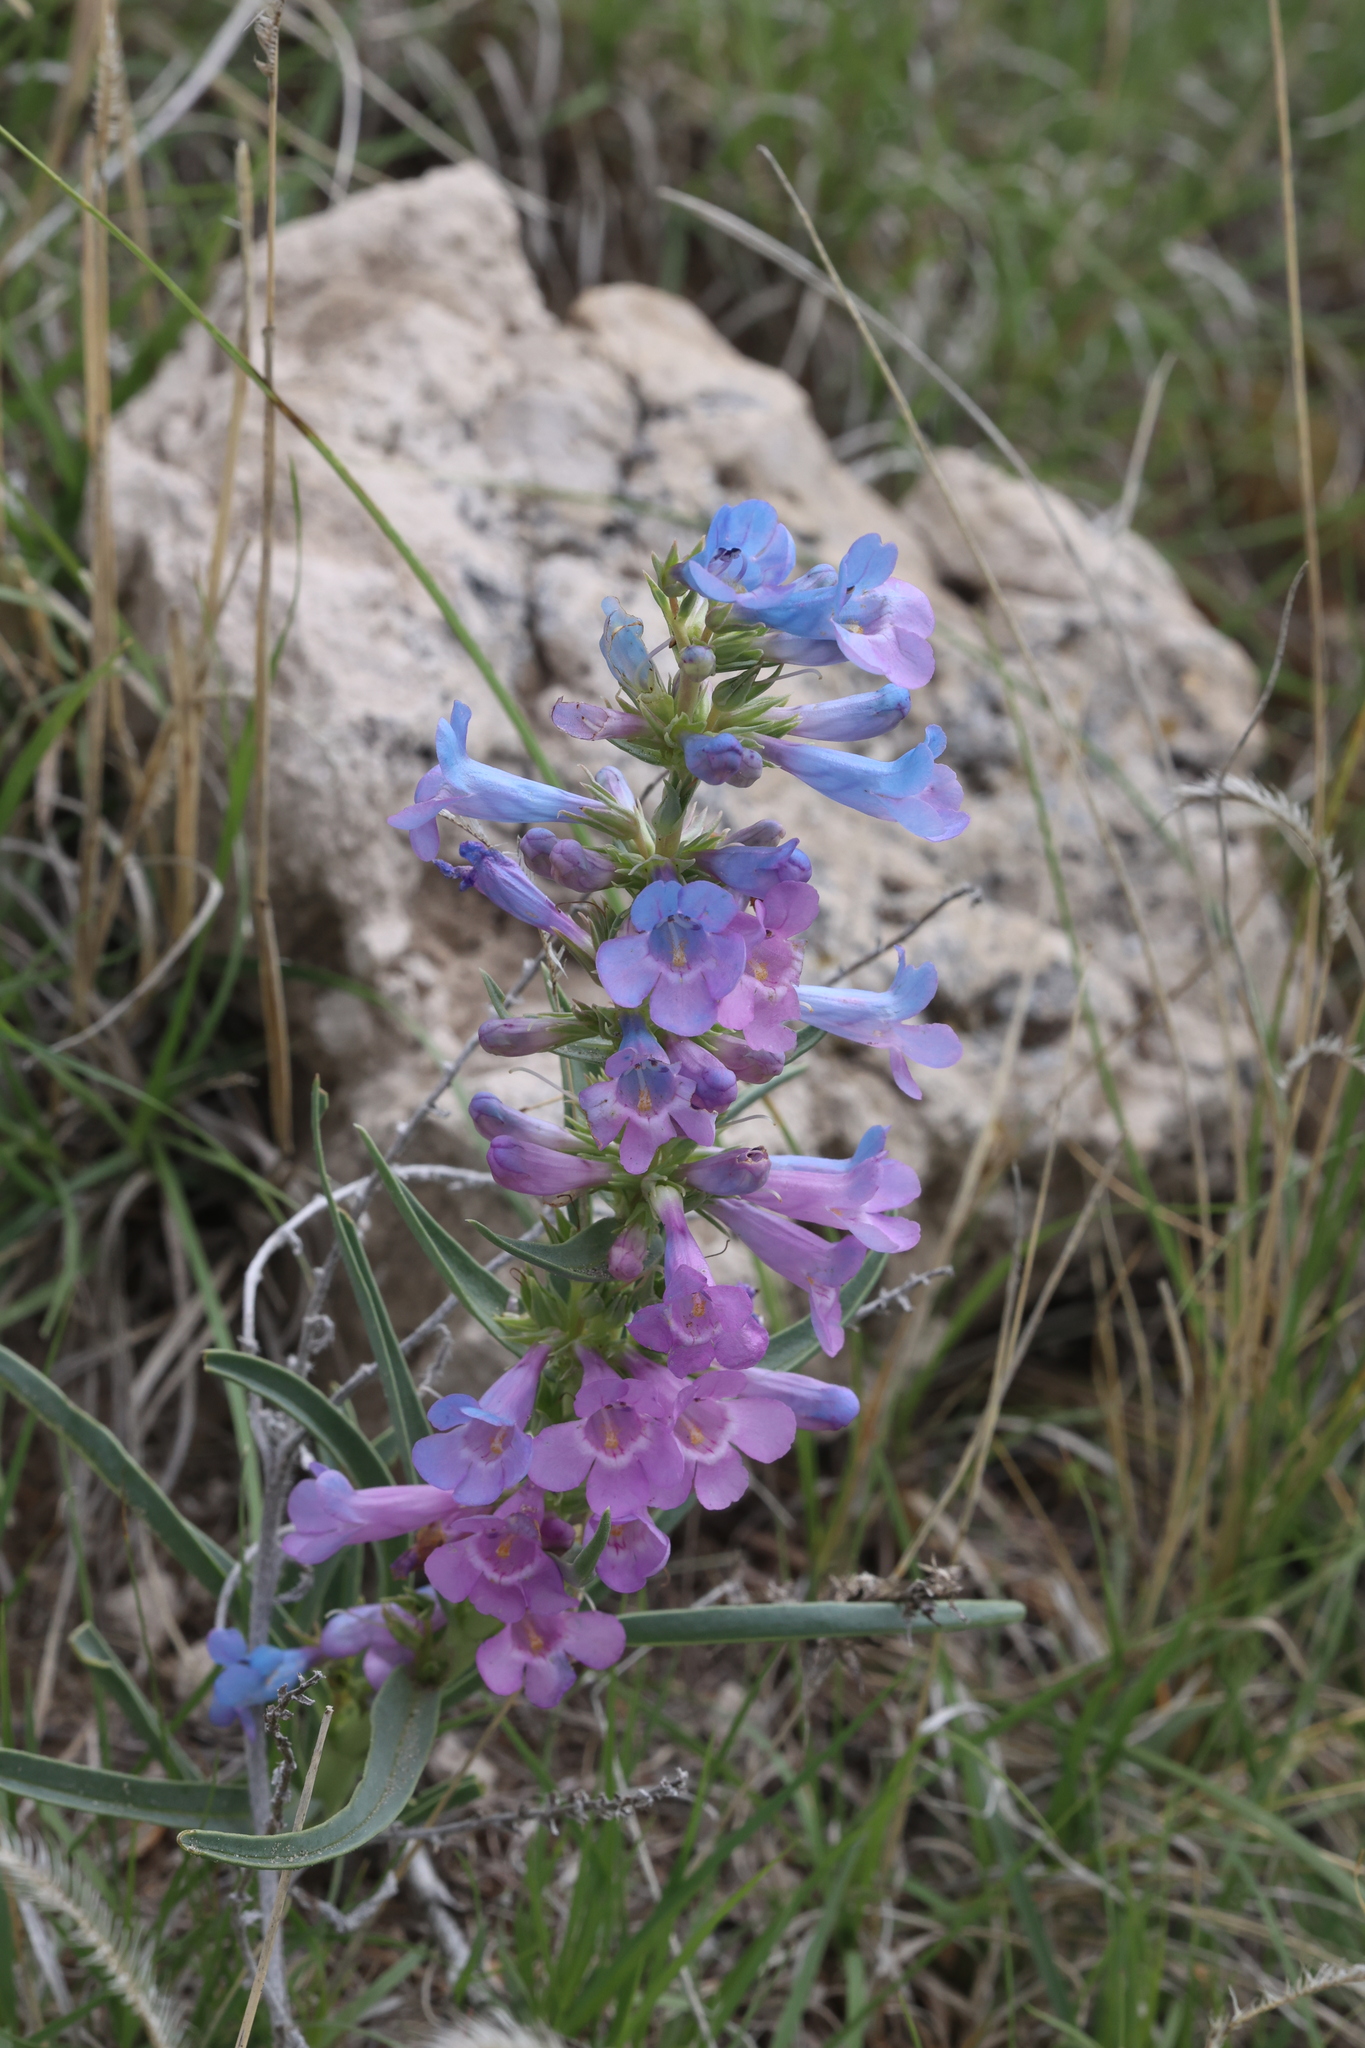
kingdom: Plantae
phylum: Tracheophyta
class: Magnoliopsida
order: Lamiales
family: Plantaginaceae
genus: Penstemon
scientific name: Penstemon angustifolius
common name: Narrow beardtongue
